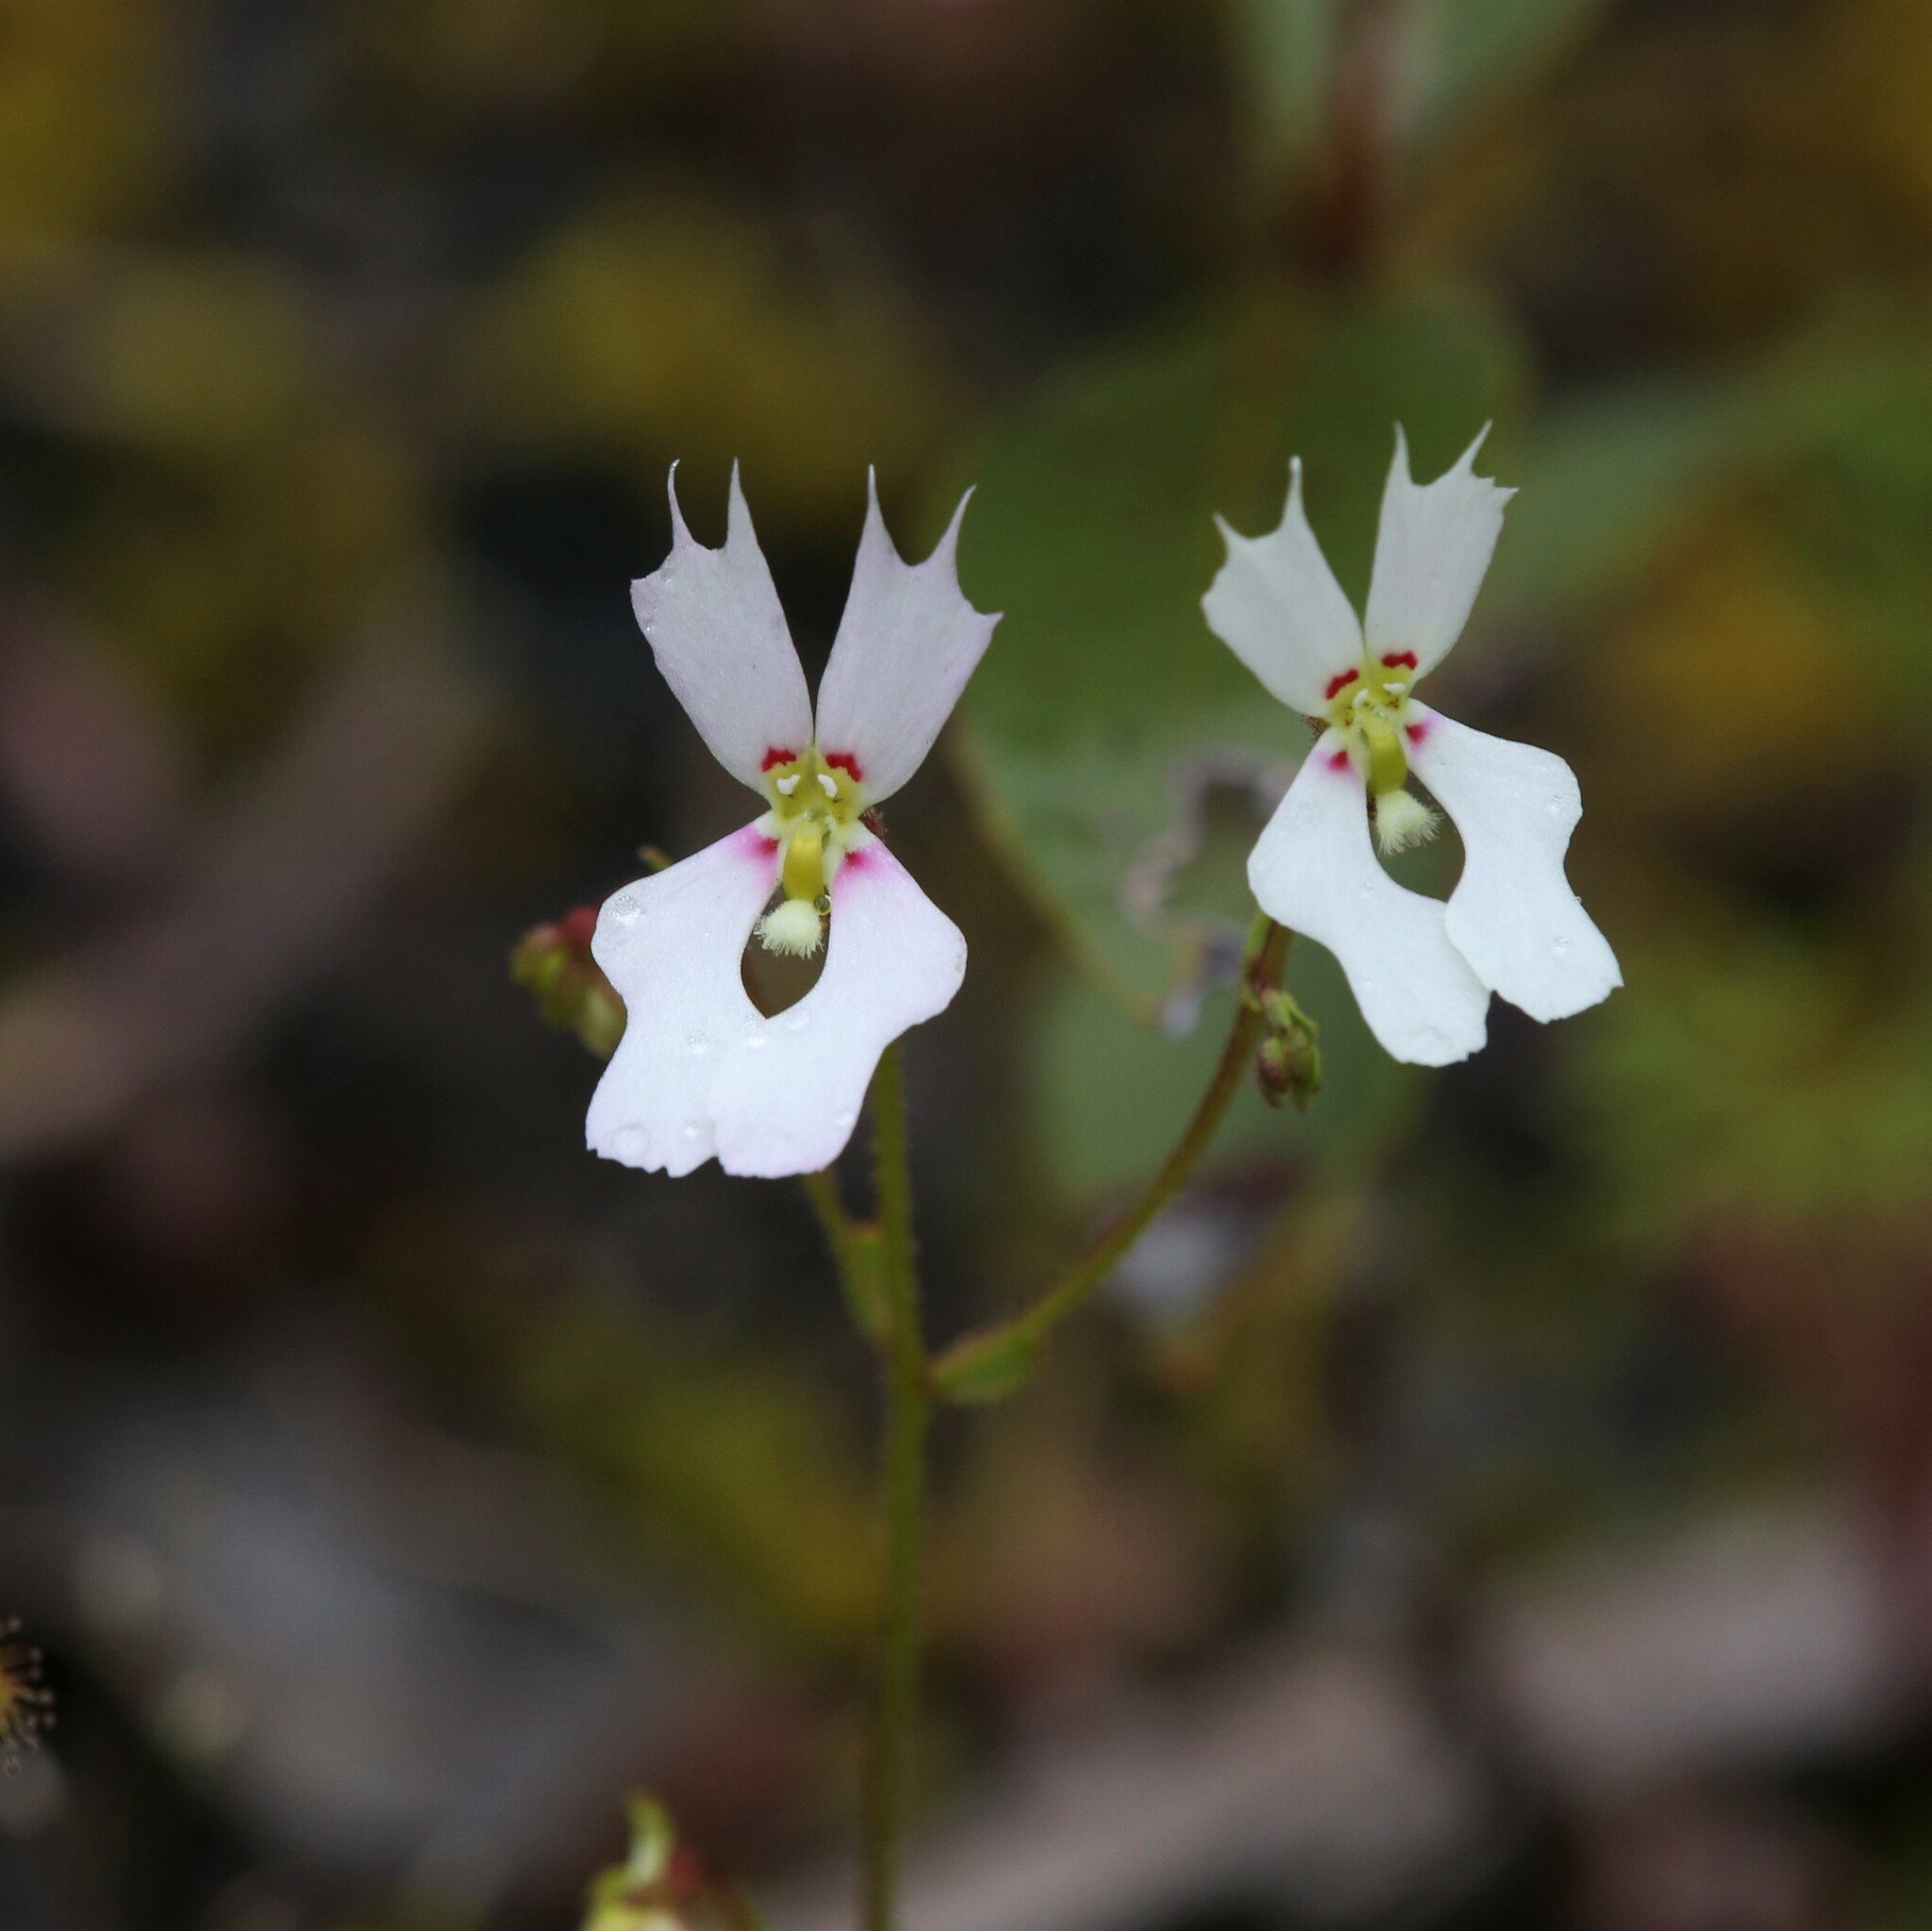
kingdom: Plantae
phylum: Tracheophyta
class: Magnoliopsida
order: Asterales
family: Stylidiaceae
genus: Stylidium
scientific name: Stylidium androsaceum
